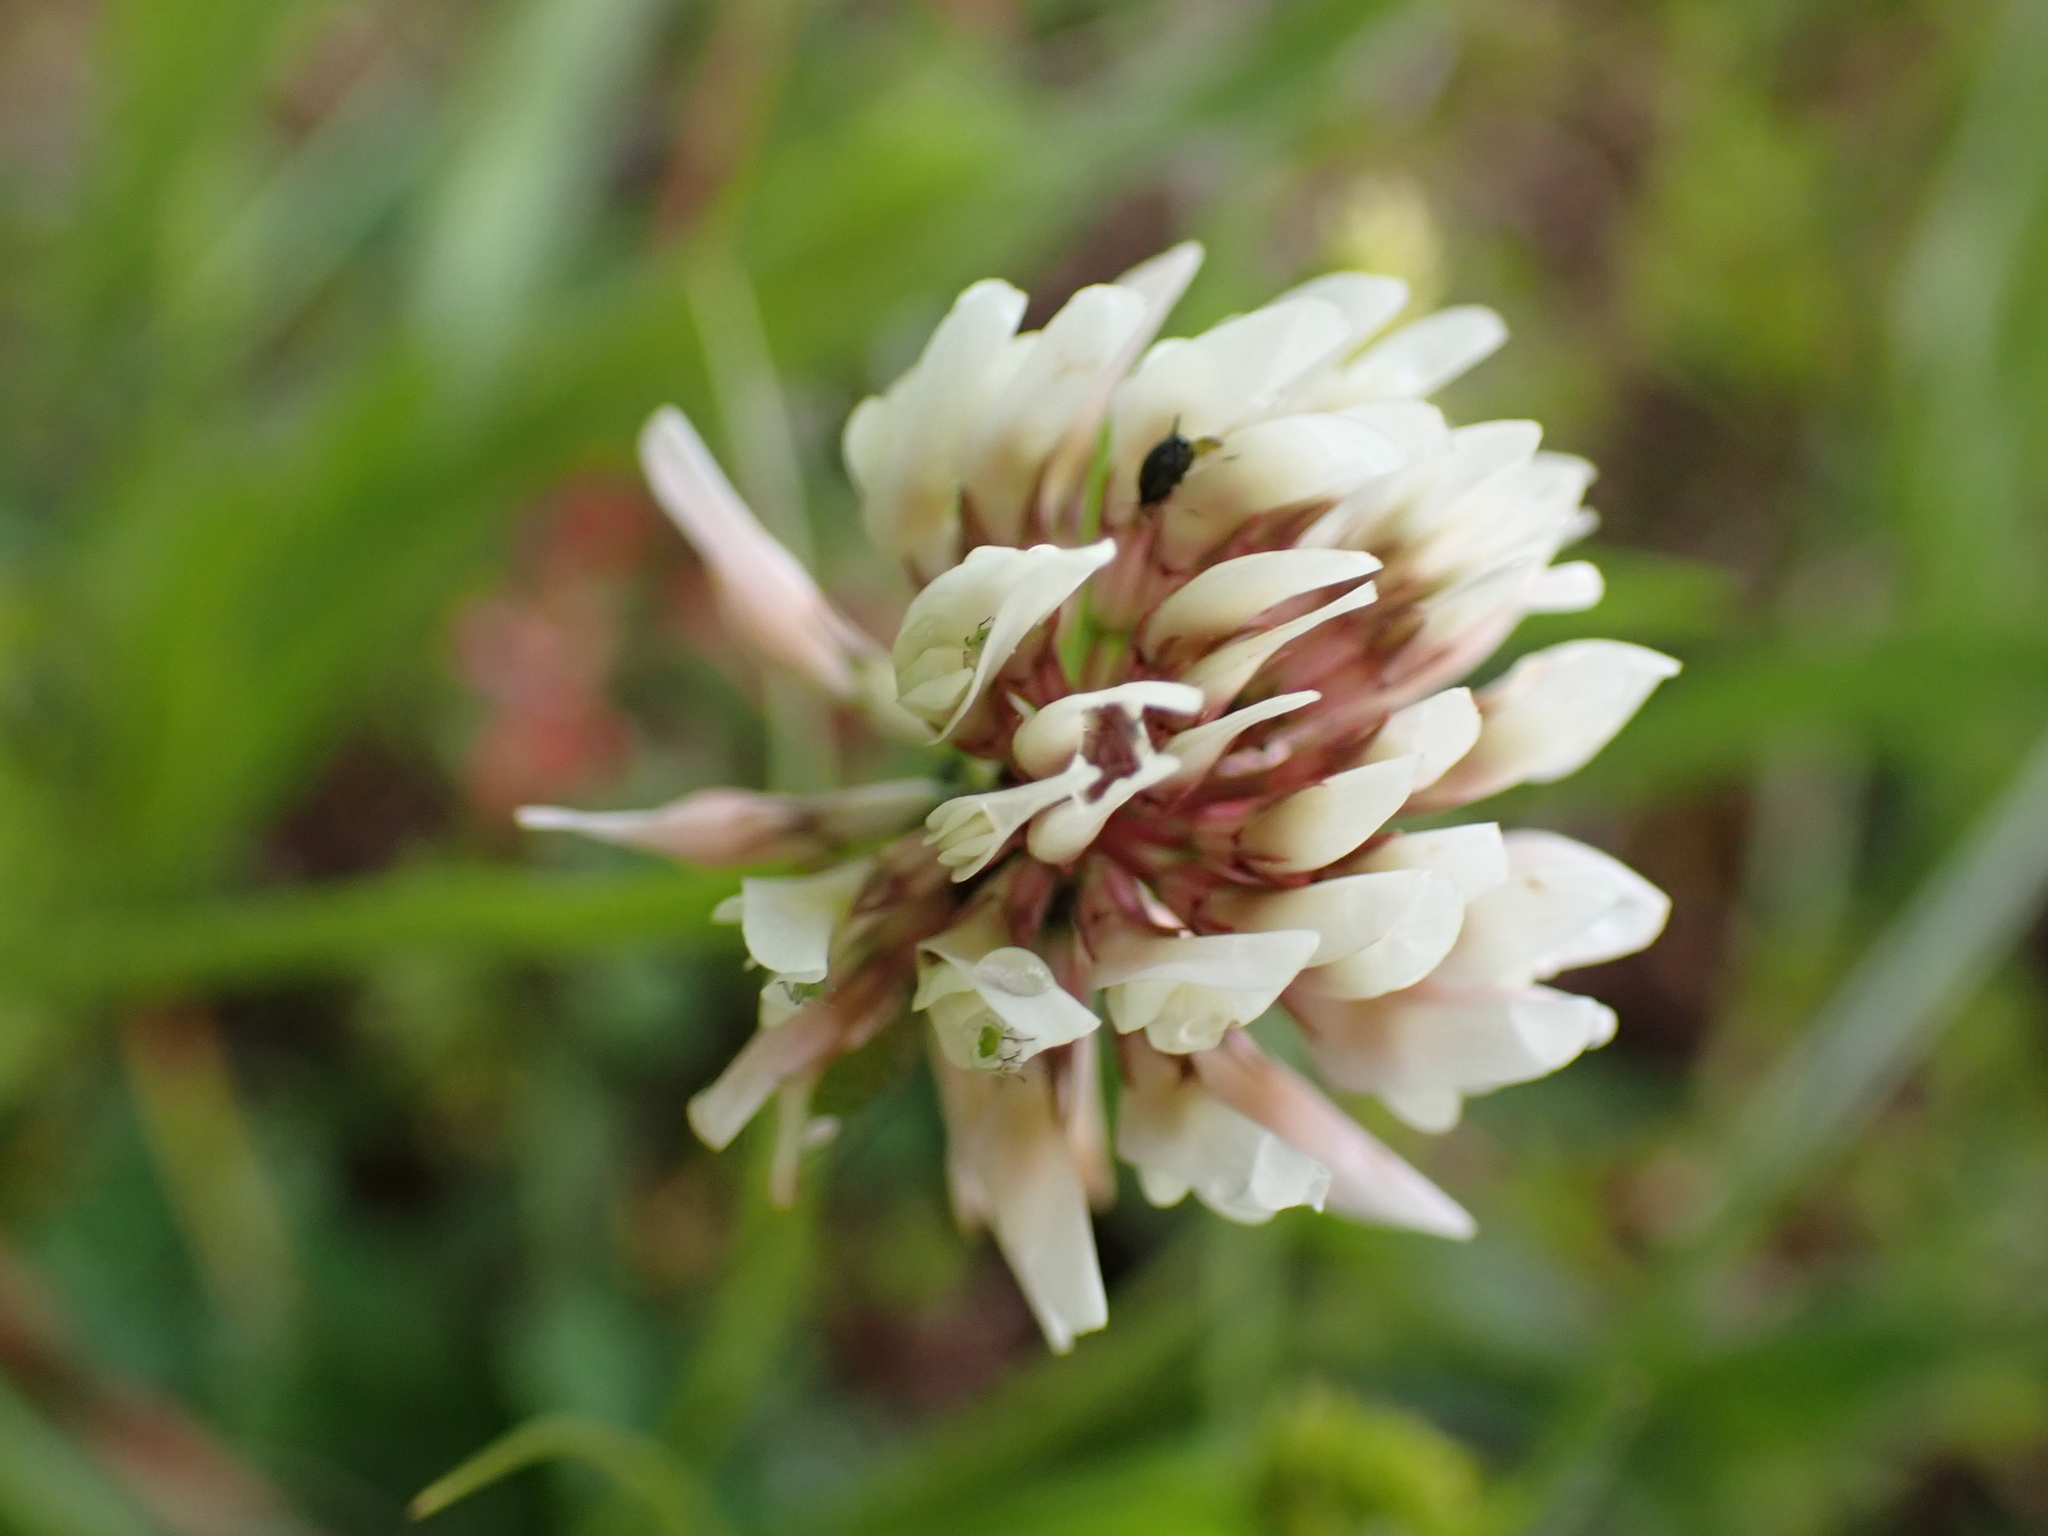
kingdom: Plantae
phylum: Tracheophyta
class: Magnoliopsida
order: Fabales
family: Fabaceae
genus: Trifolium
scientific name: Trifolium repens
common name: White clover
